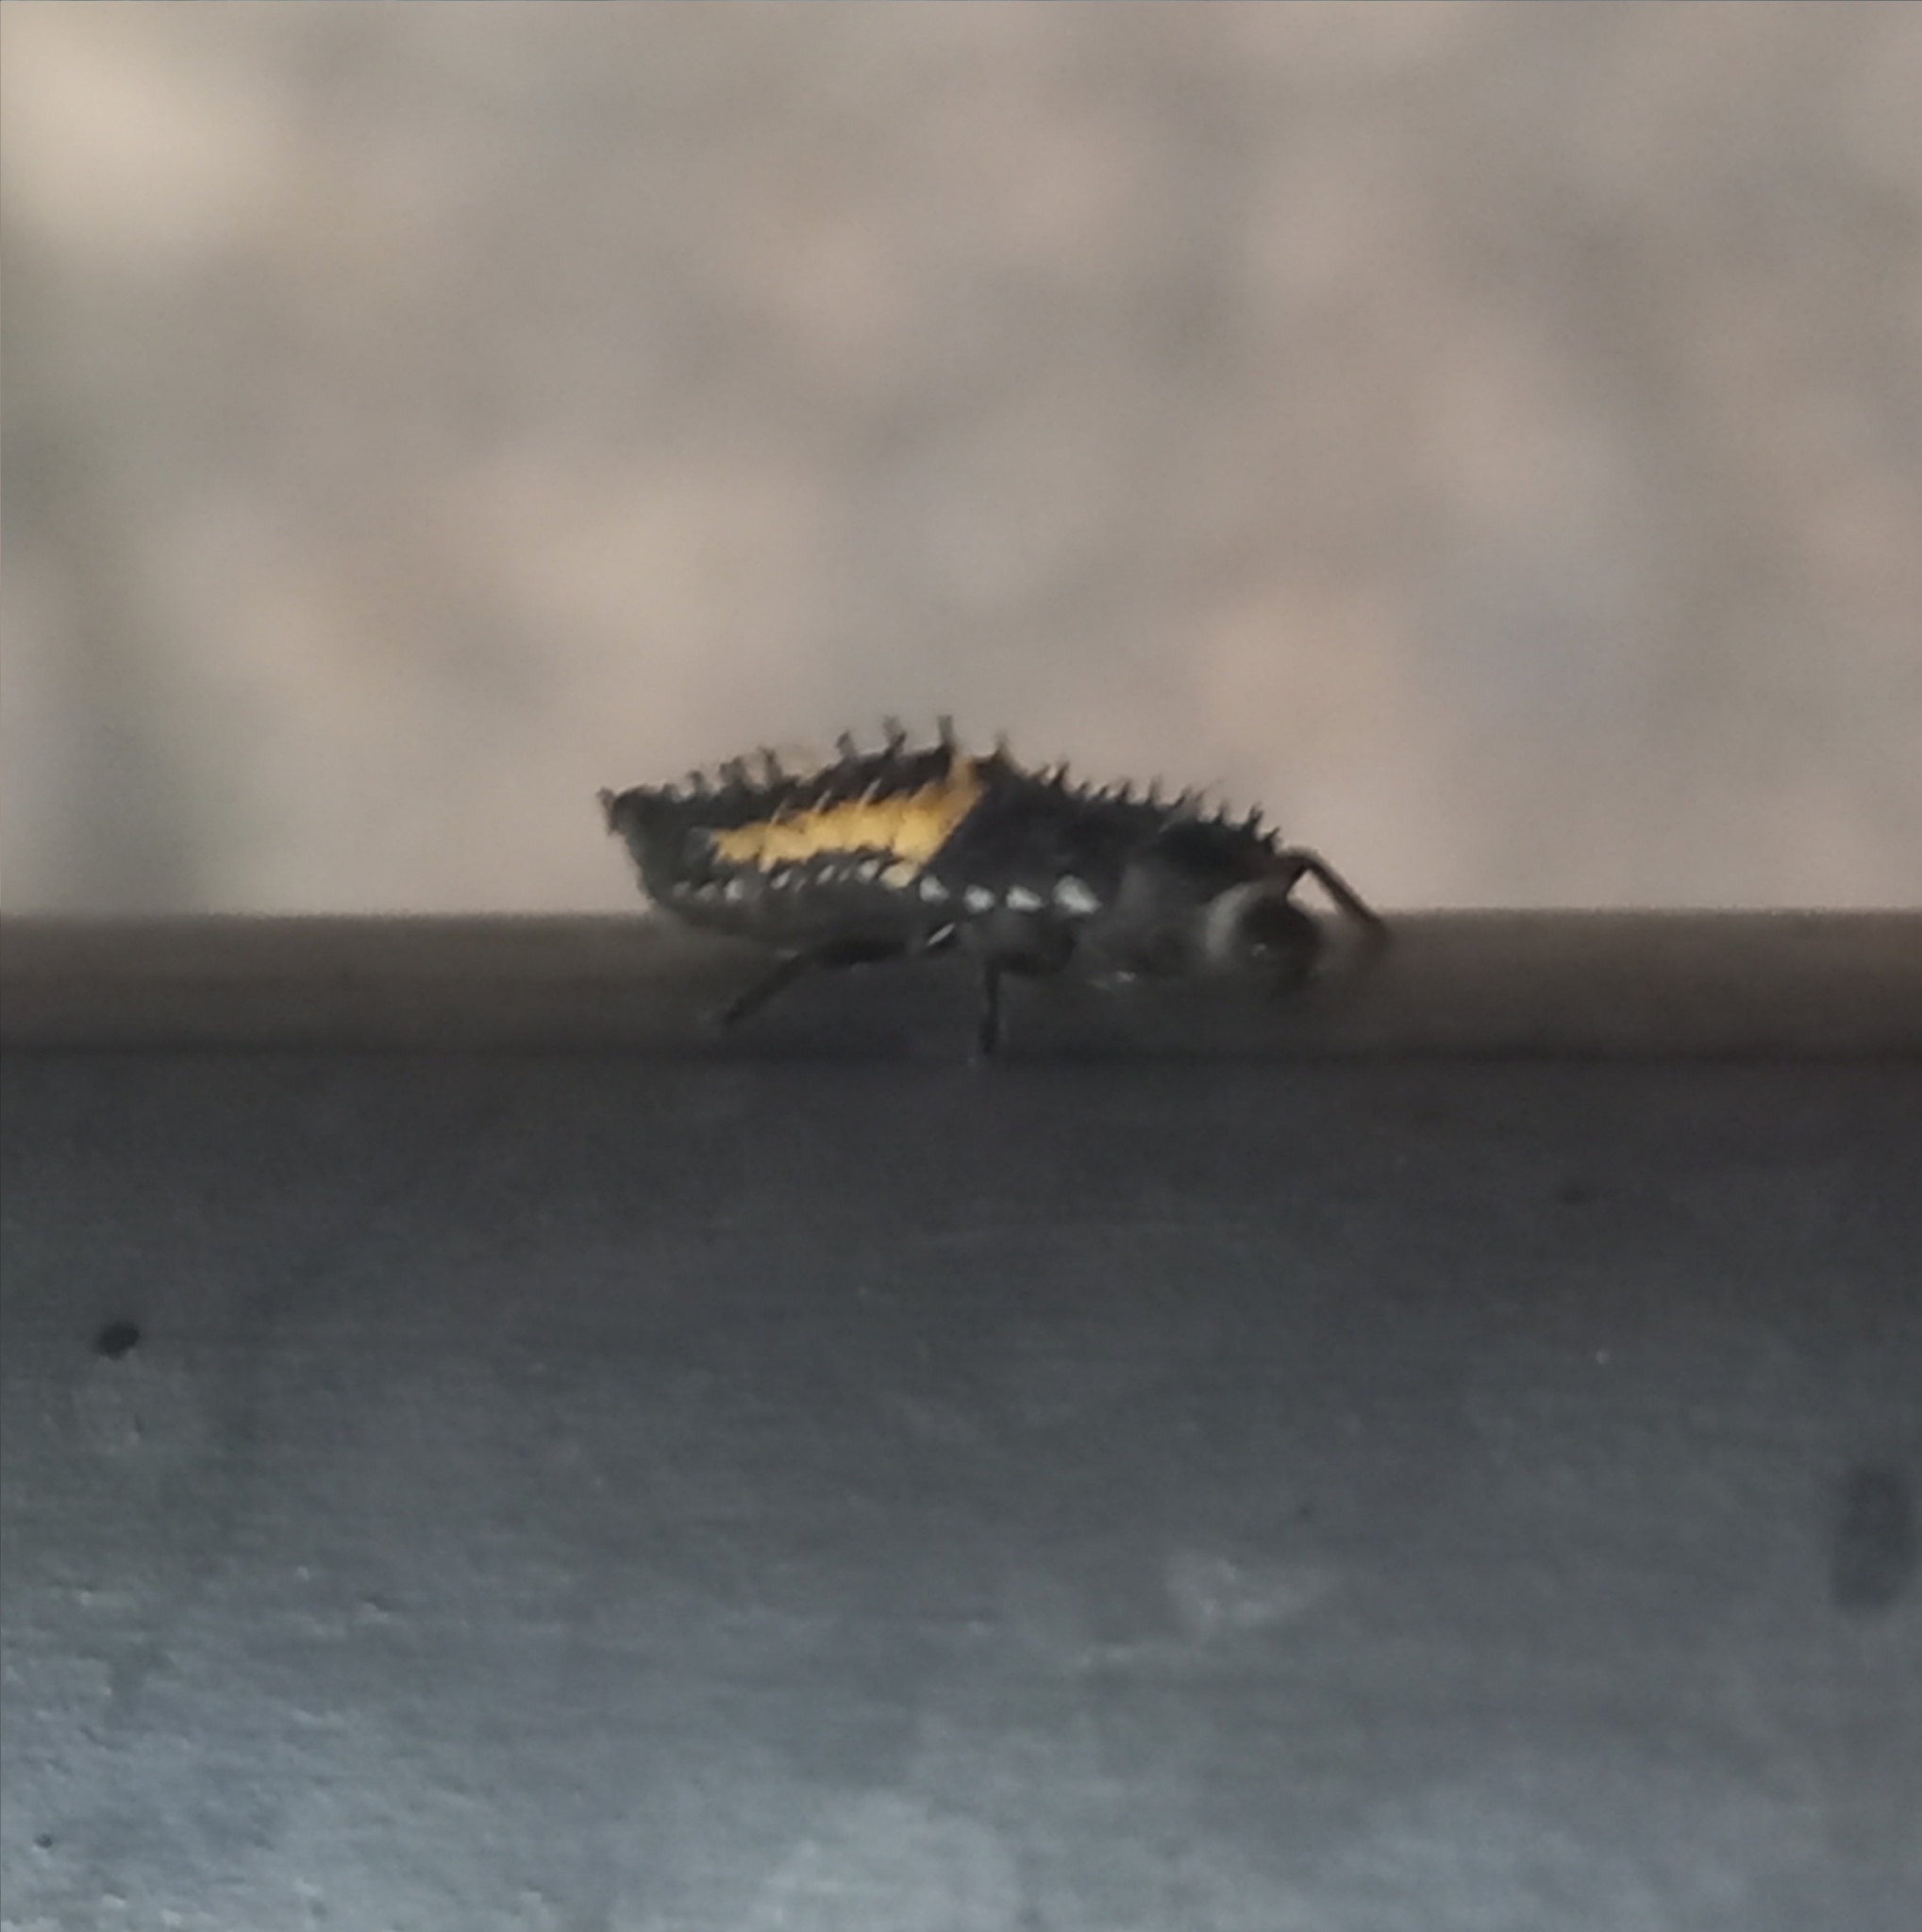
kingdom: Animalia
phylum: Arthropoda
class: Insecta
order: Coleoptera
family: Coccinellidae
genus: Harmonia
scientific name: Harmonia axyridis
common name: Harlequin ladybird
